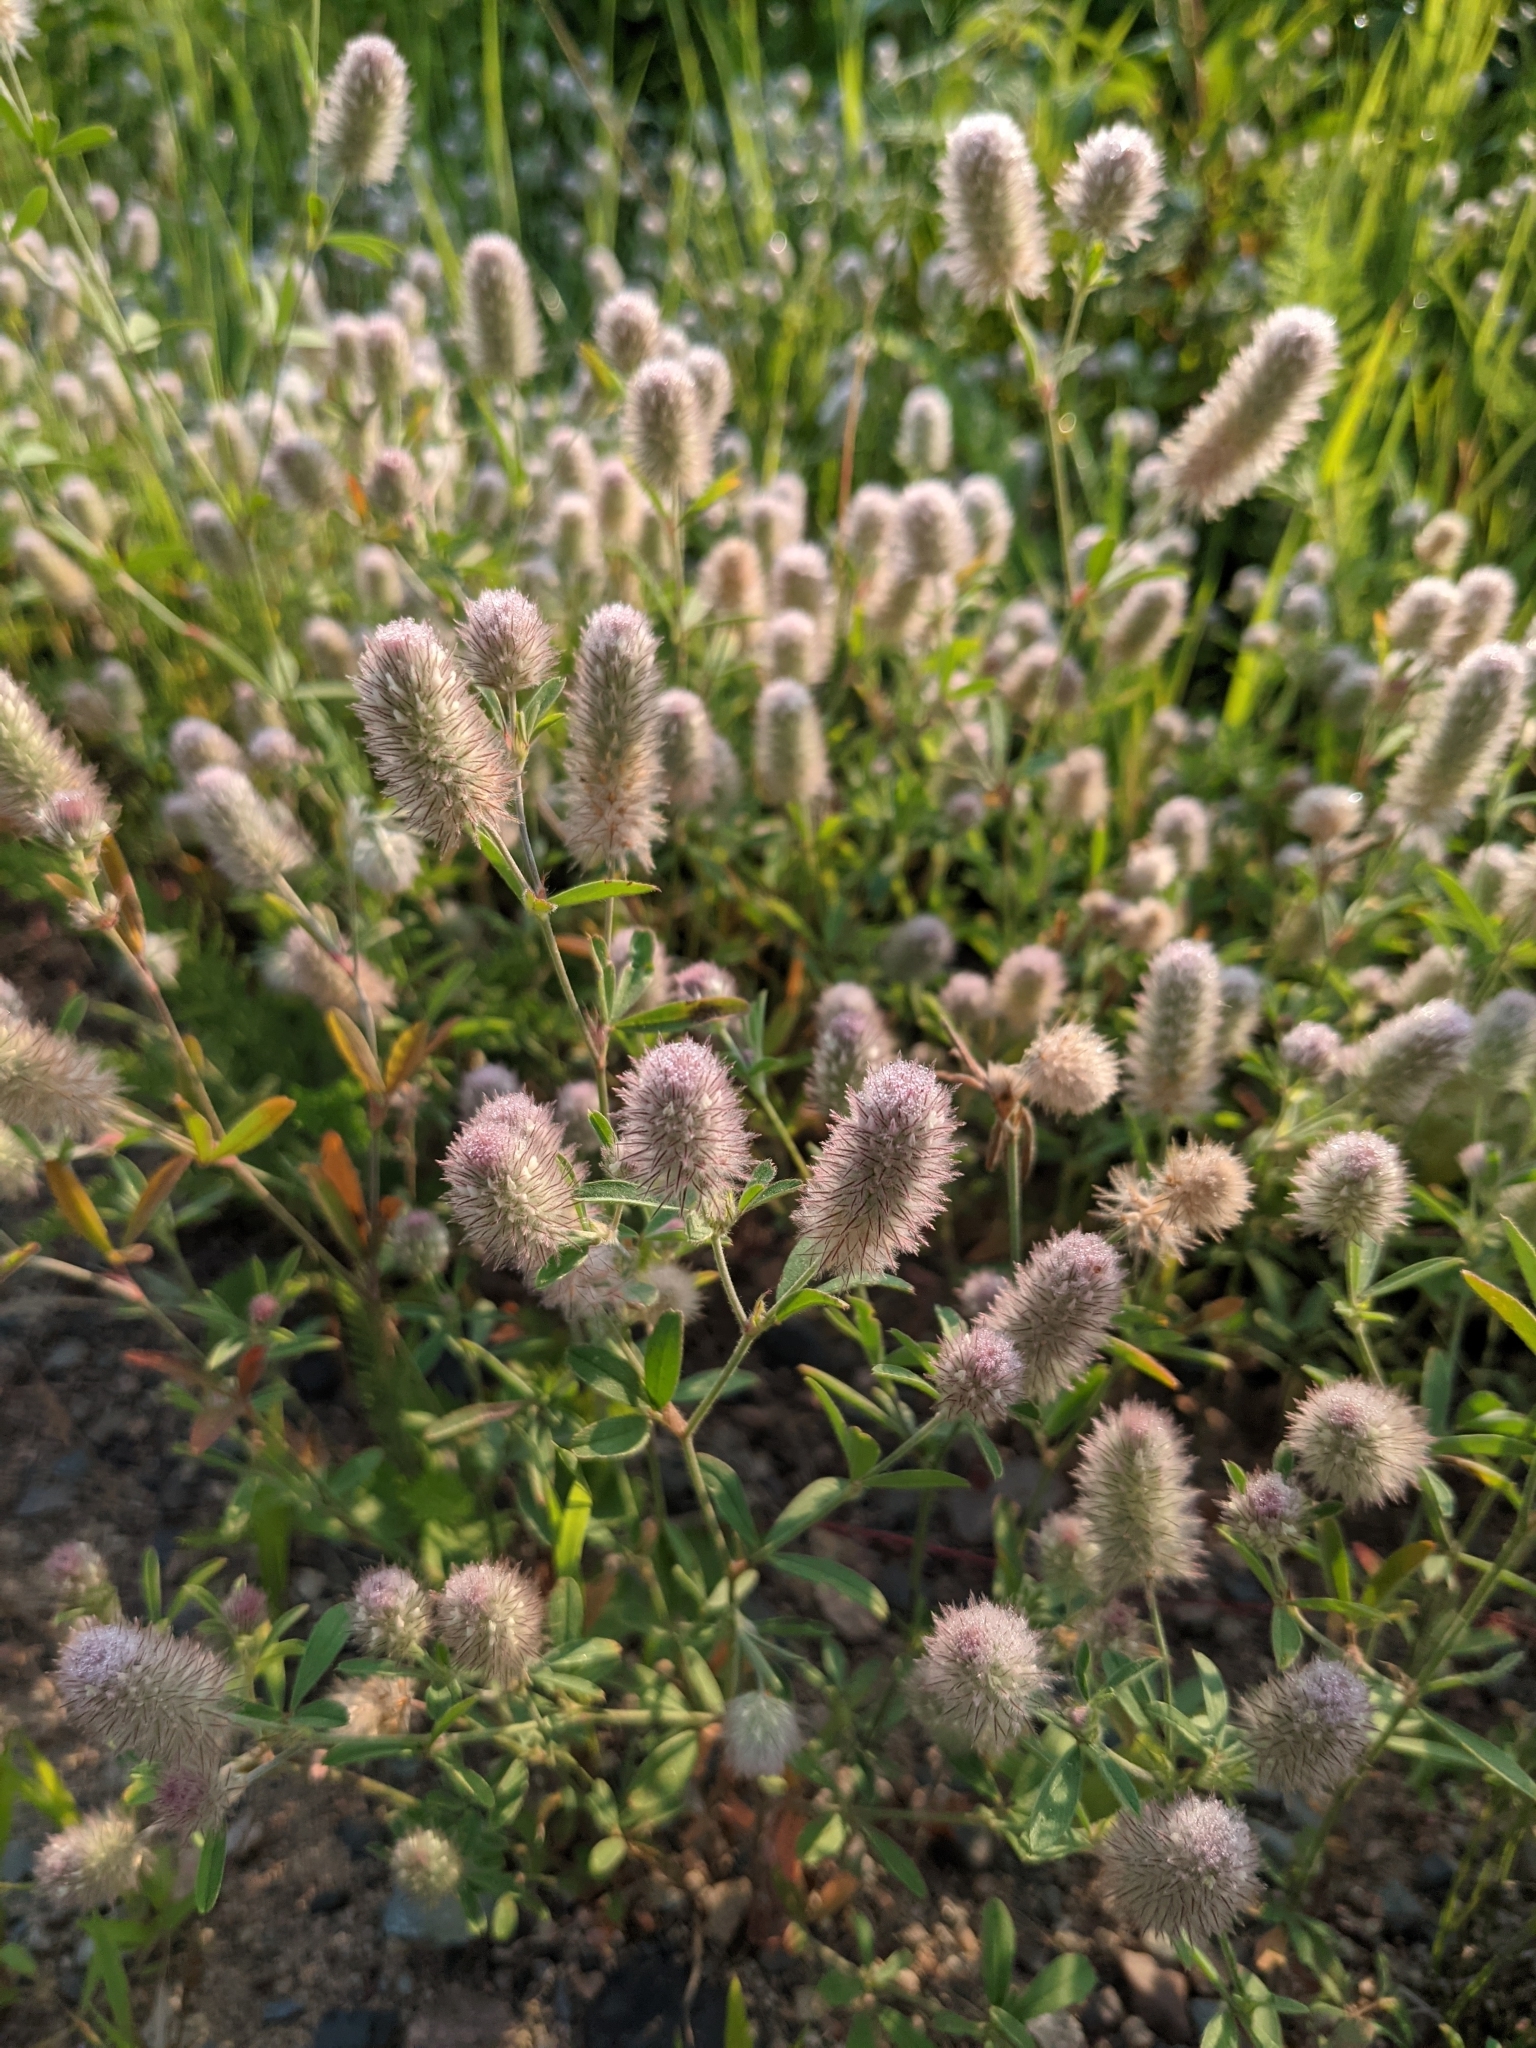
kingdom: Plantae
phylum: Tracheophyta
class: Magnoliopsida
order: Fabales
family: Fabaceae
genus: Trifolium
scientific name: Trifolium arvense
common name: Hare's-foot clover
